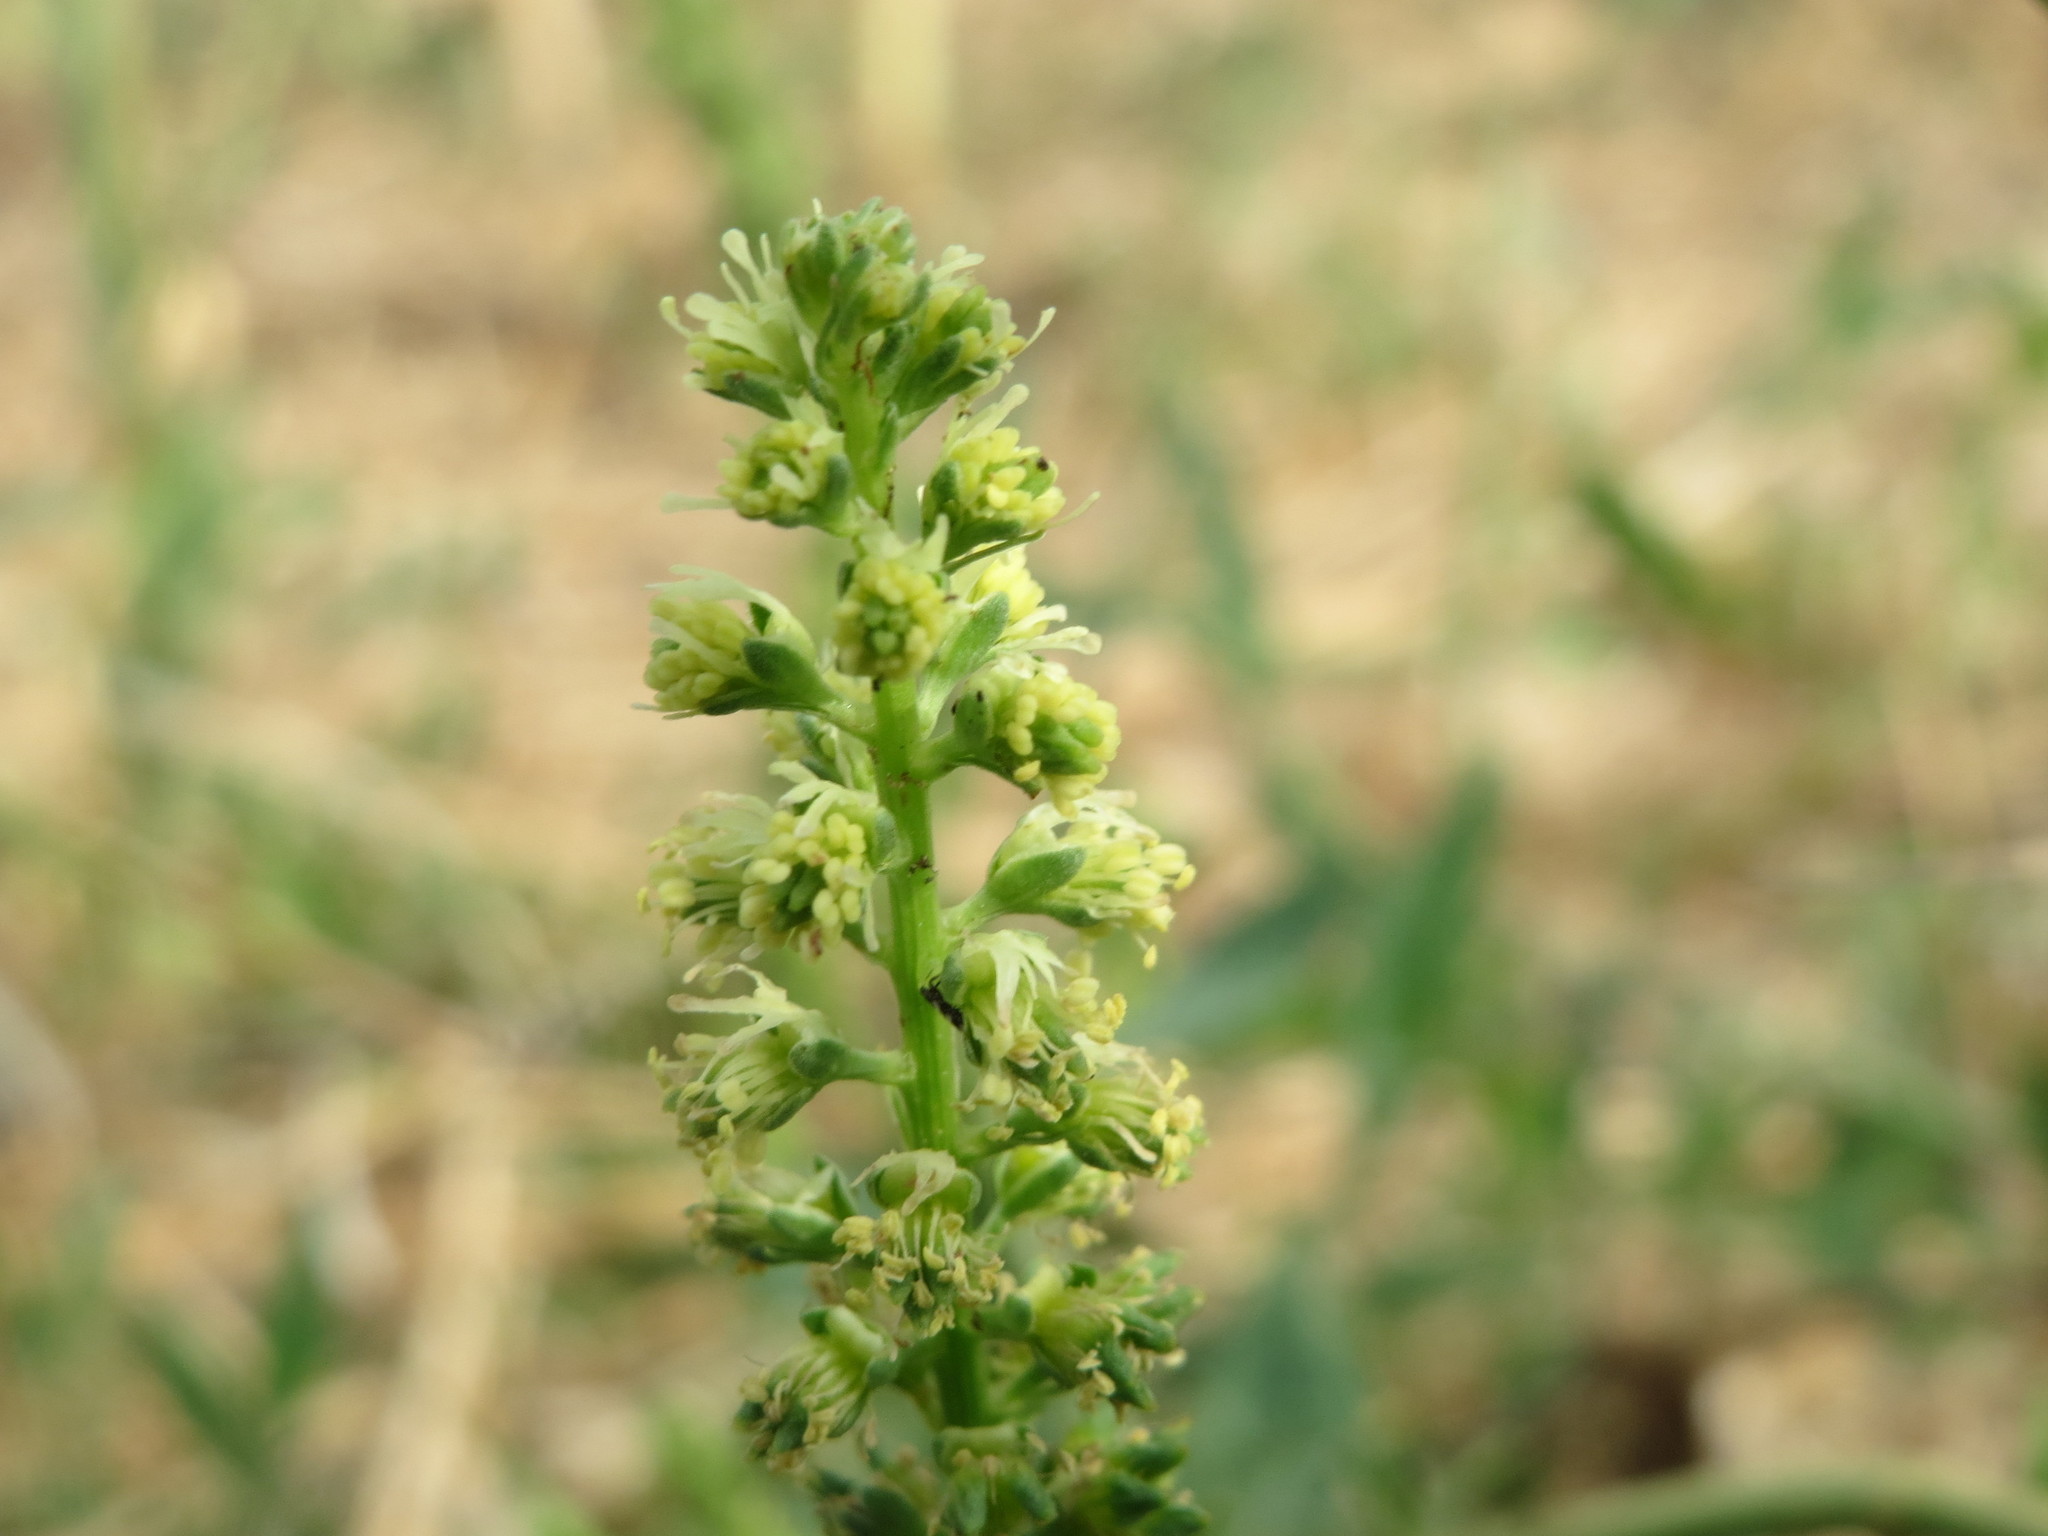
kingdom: Plantae
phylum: Tracheophyta
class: Magnoliopsida
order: Brassicales
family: Resedaceae
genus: Reseda
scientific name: Reseda lutea
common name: Wild mignonette
